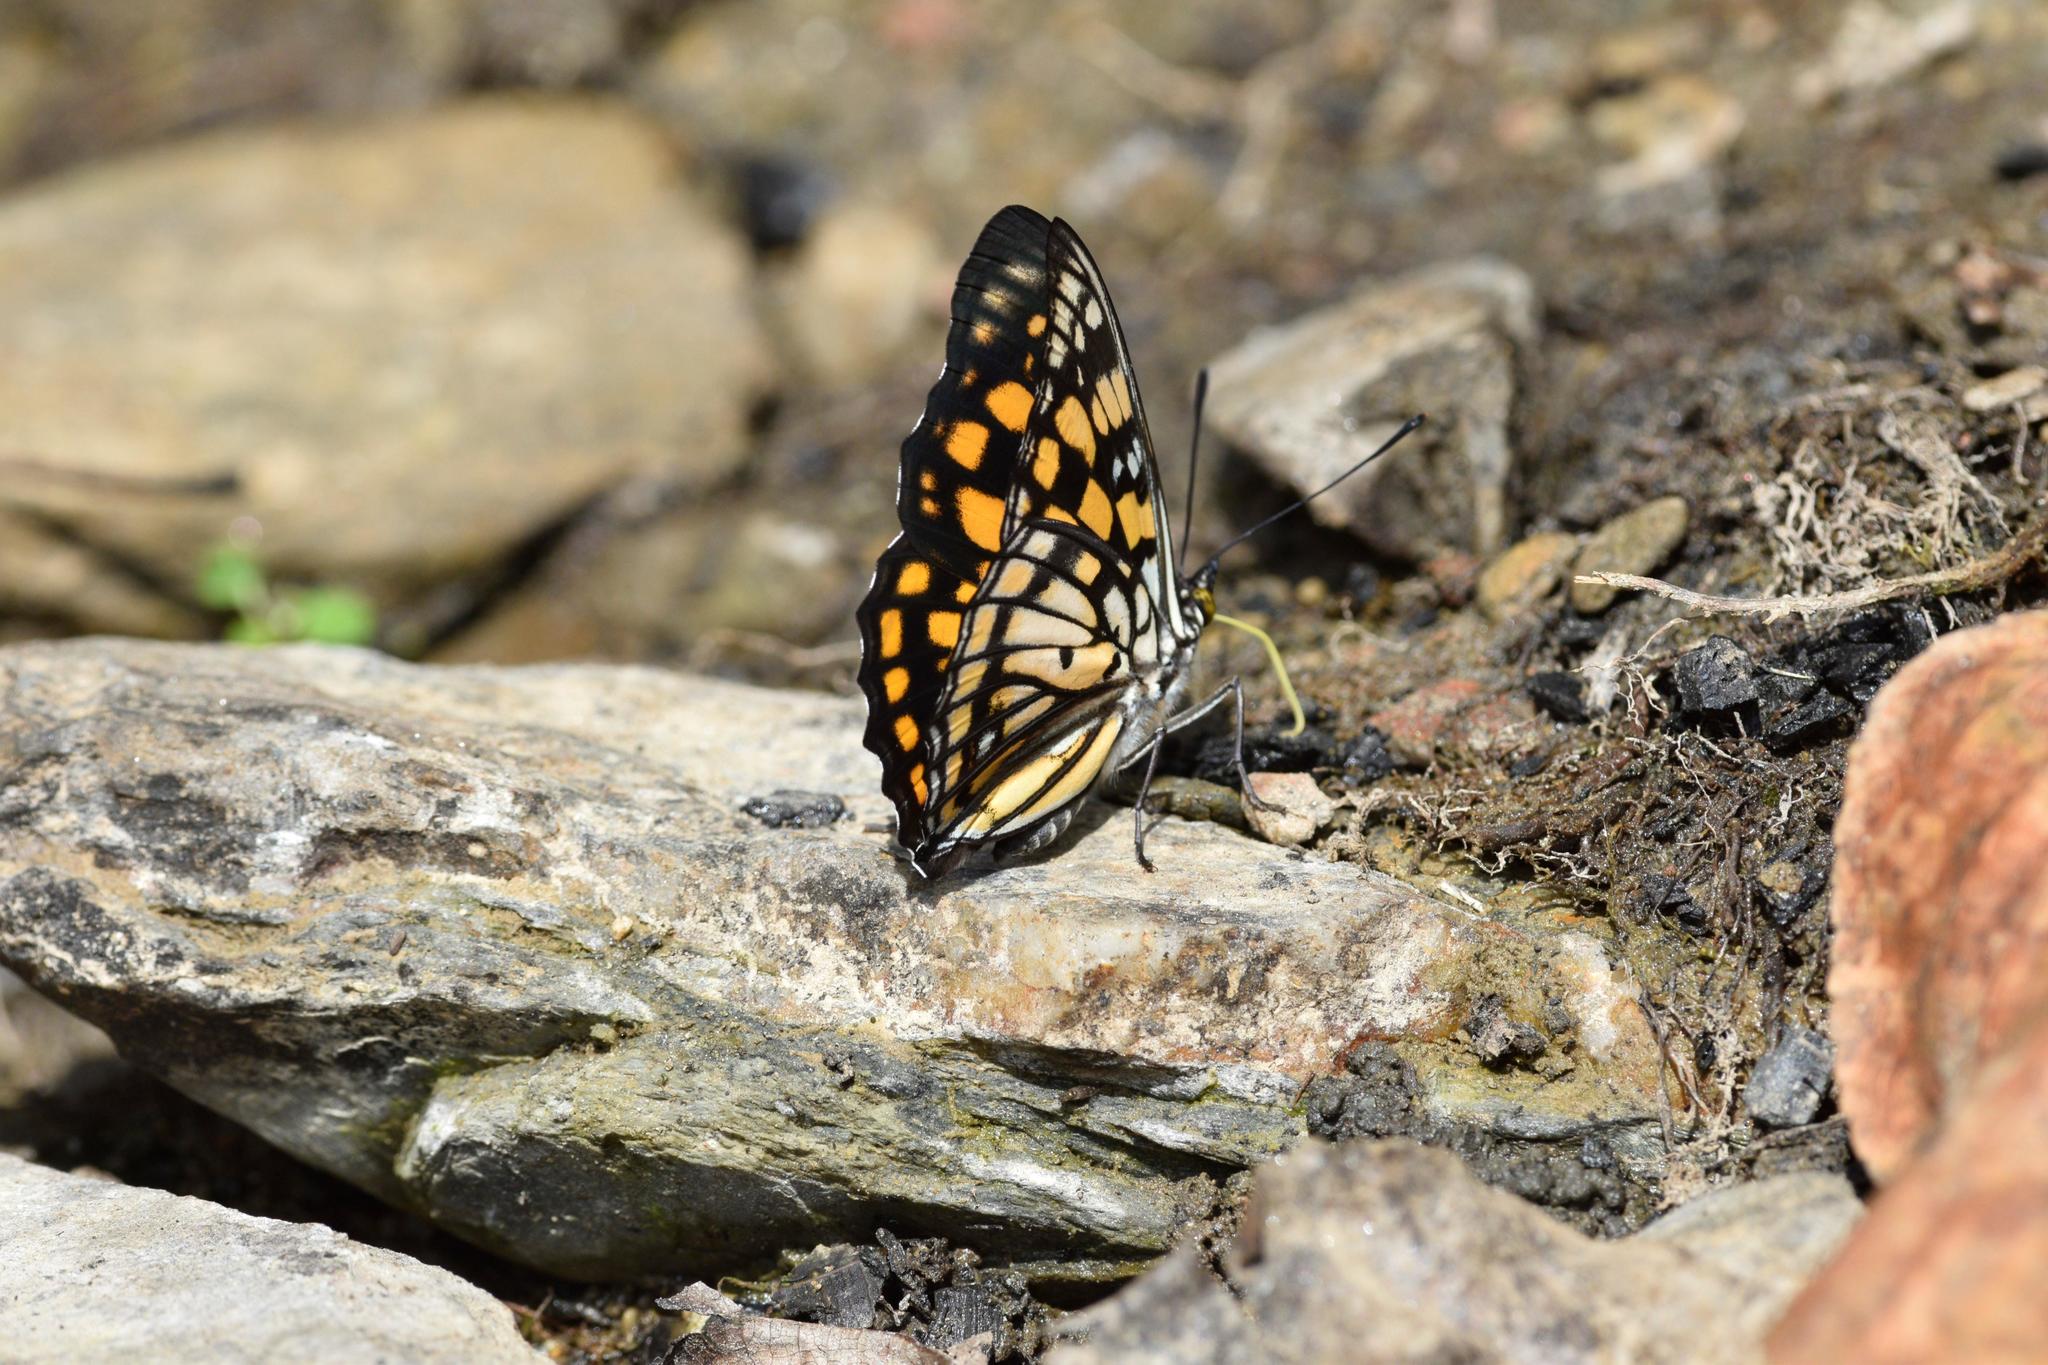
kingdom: Animalia
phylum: Arthropoda
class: Insecta
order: Lepidoptera
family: Nymphalidae
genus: Sephisa
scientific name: Sephisa dichroa
